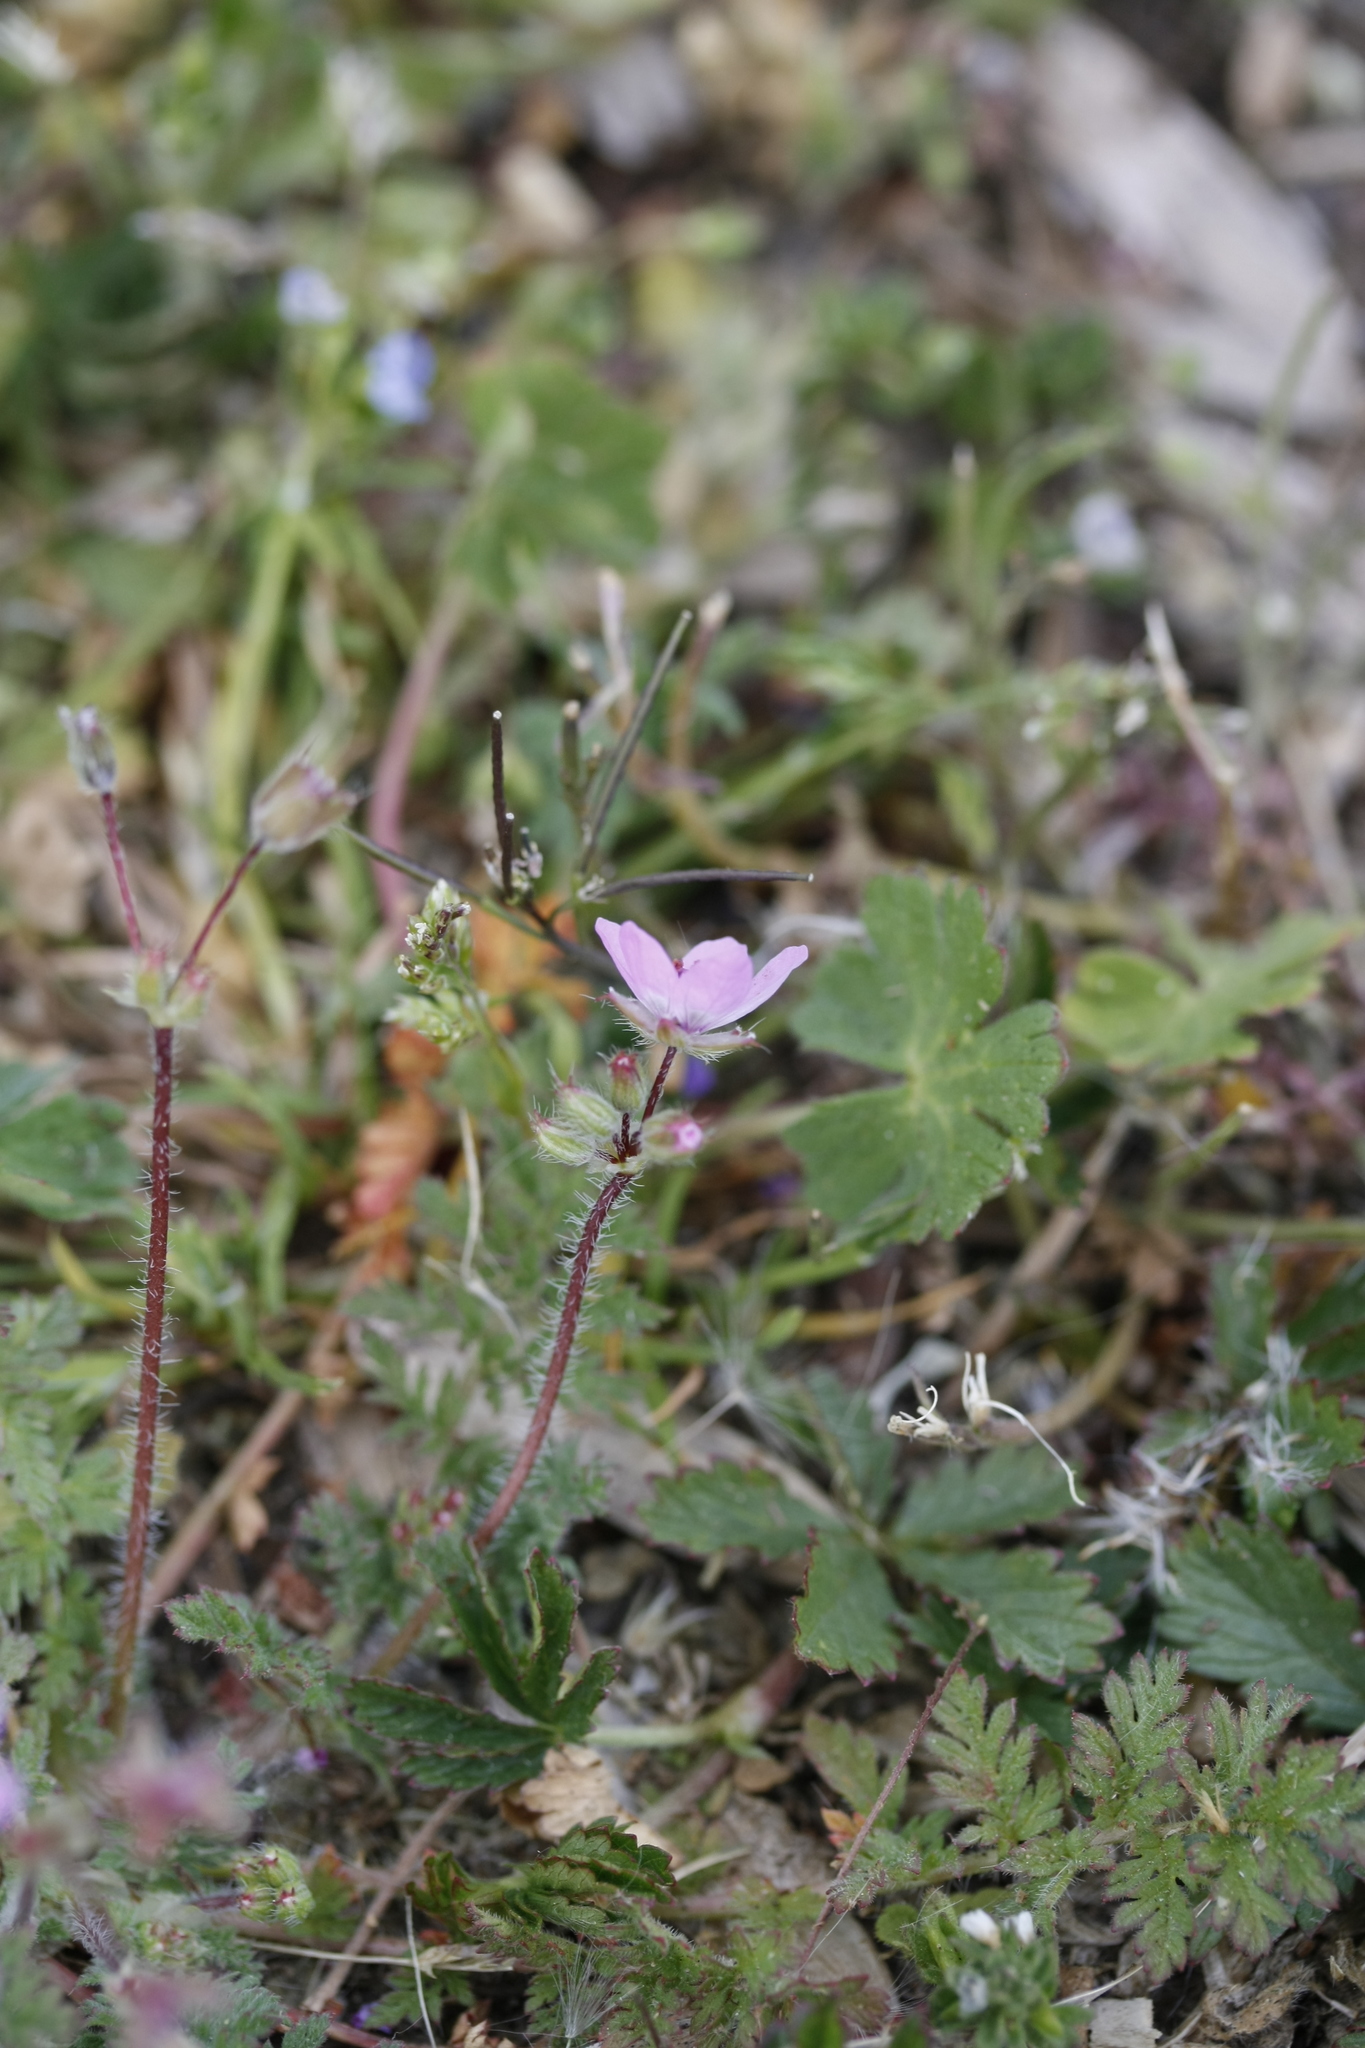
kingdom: Plantae
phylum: Tracheophyta
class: Magnoliopsida
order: Geraniales
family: Geraniaceae
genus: Erodium
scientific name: Erodium cicutarium
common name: Common stork's-bill
